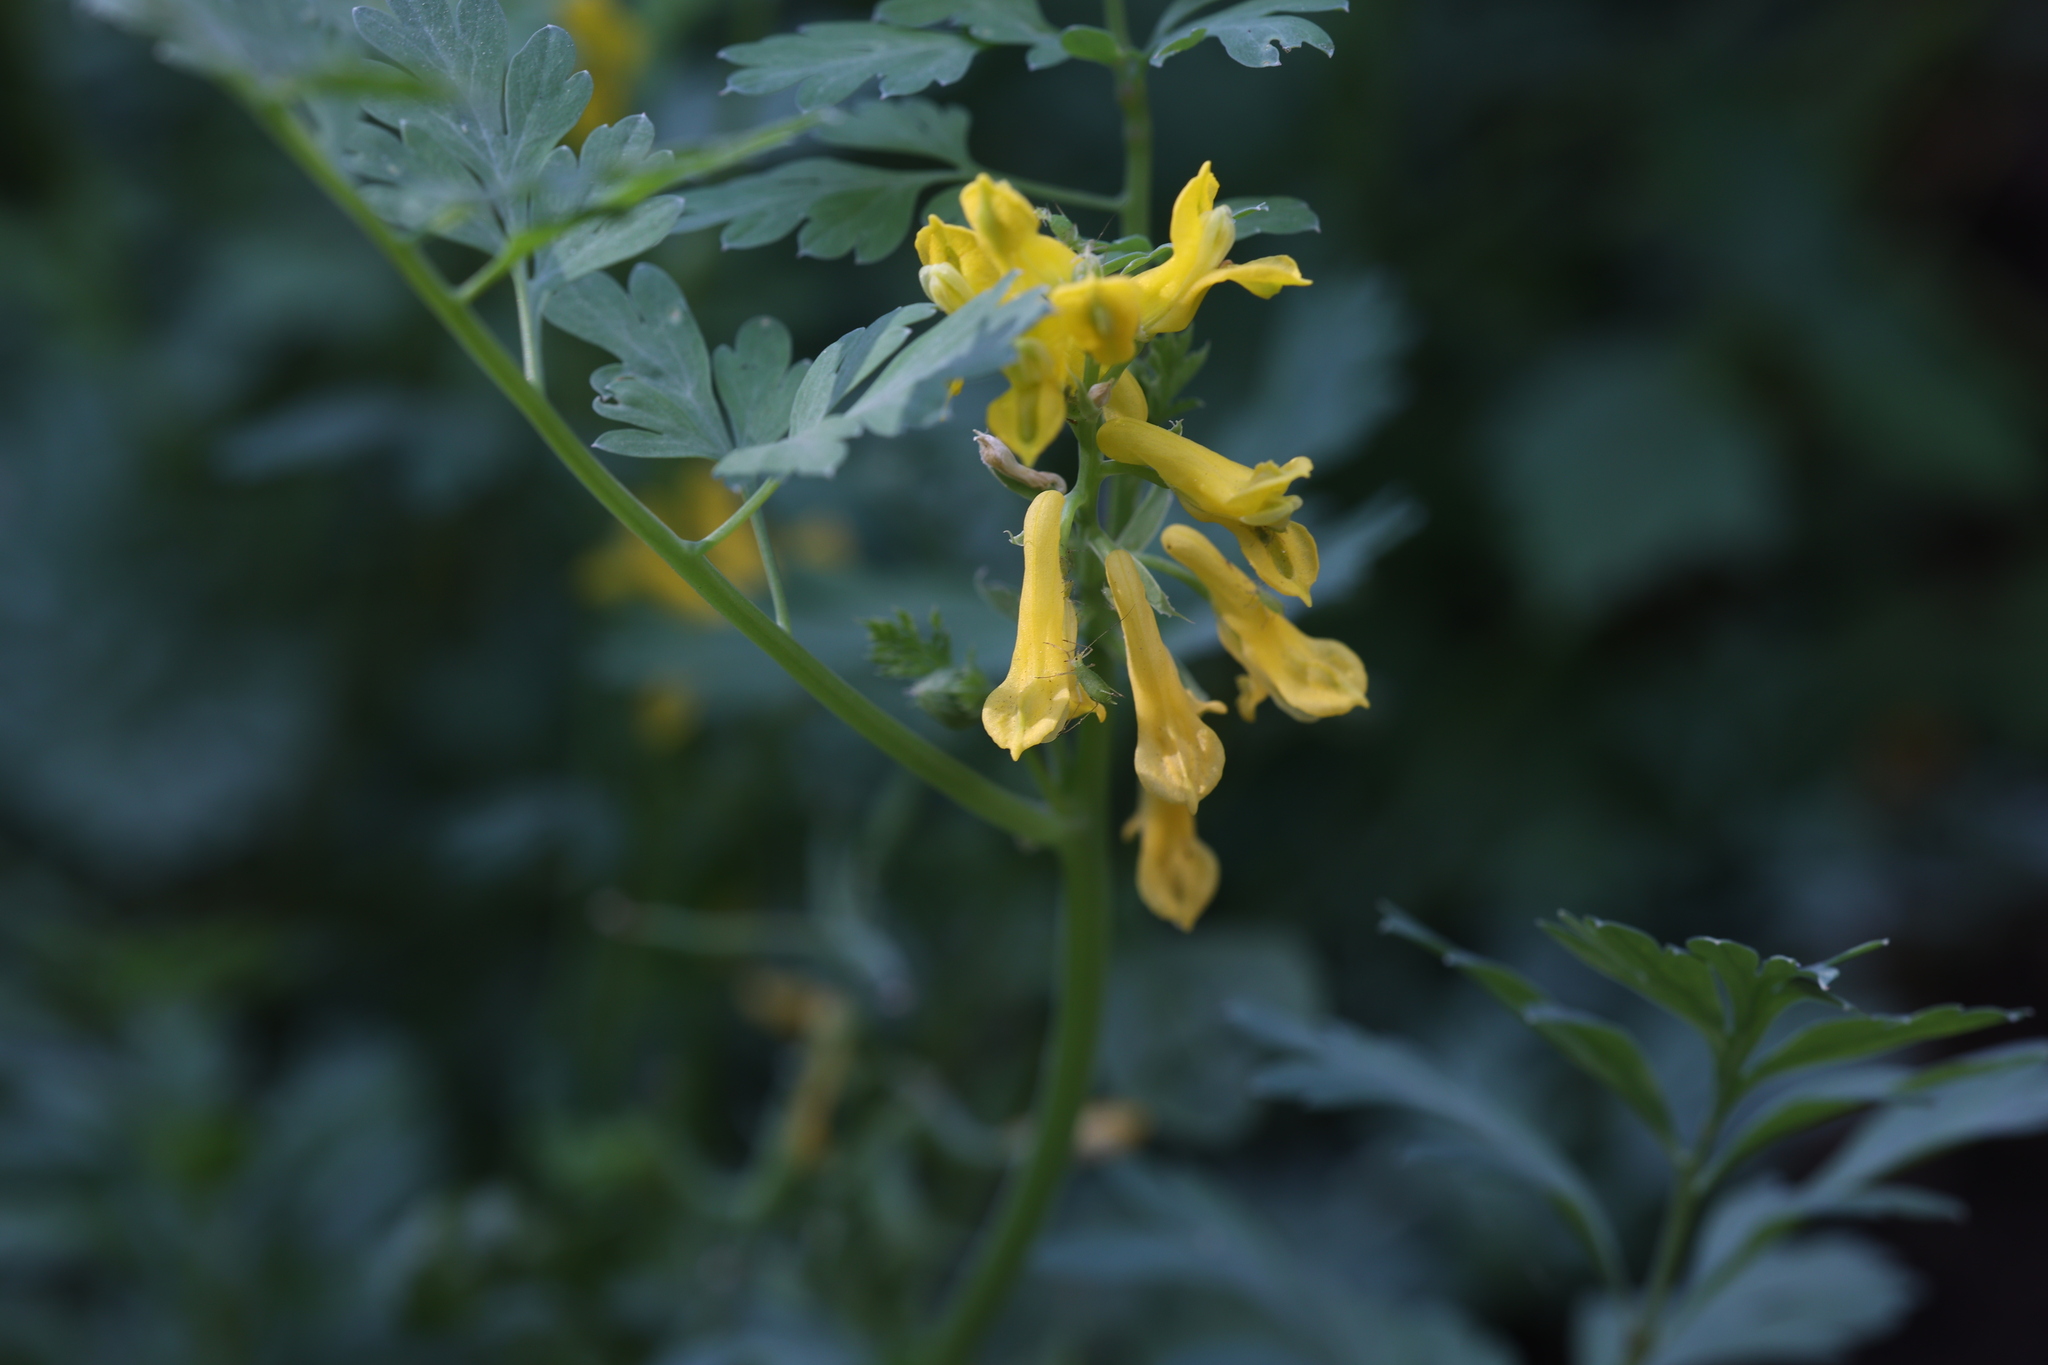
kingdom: Plantae
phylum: Tracheophyta
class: Magnoliopsida
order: Ranunculales
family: Papaveraceae
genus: Corydalis
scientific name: Corydalis aurea
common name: Golden corydalis
